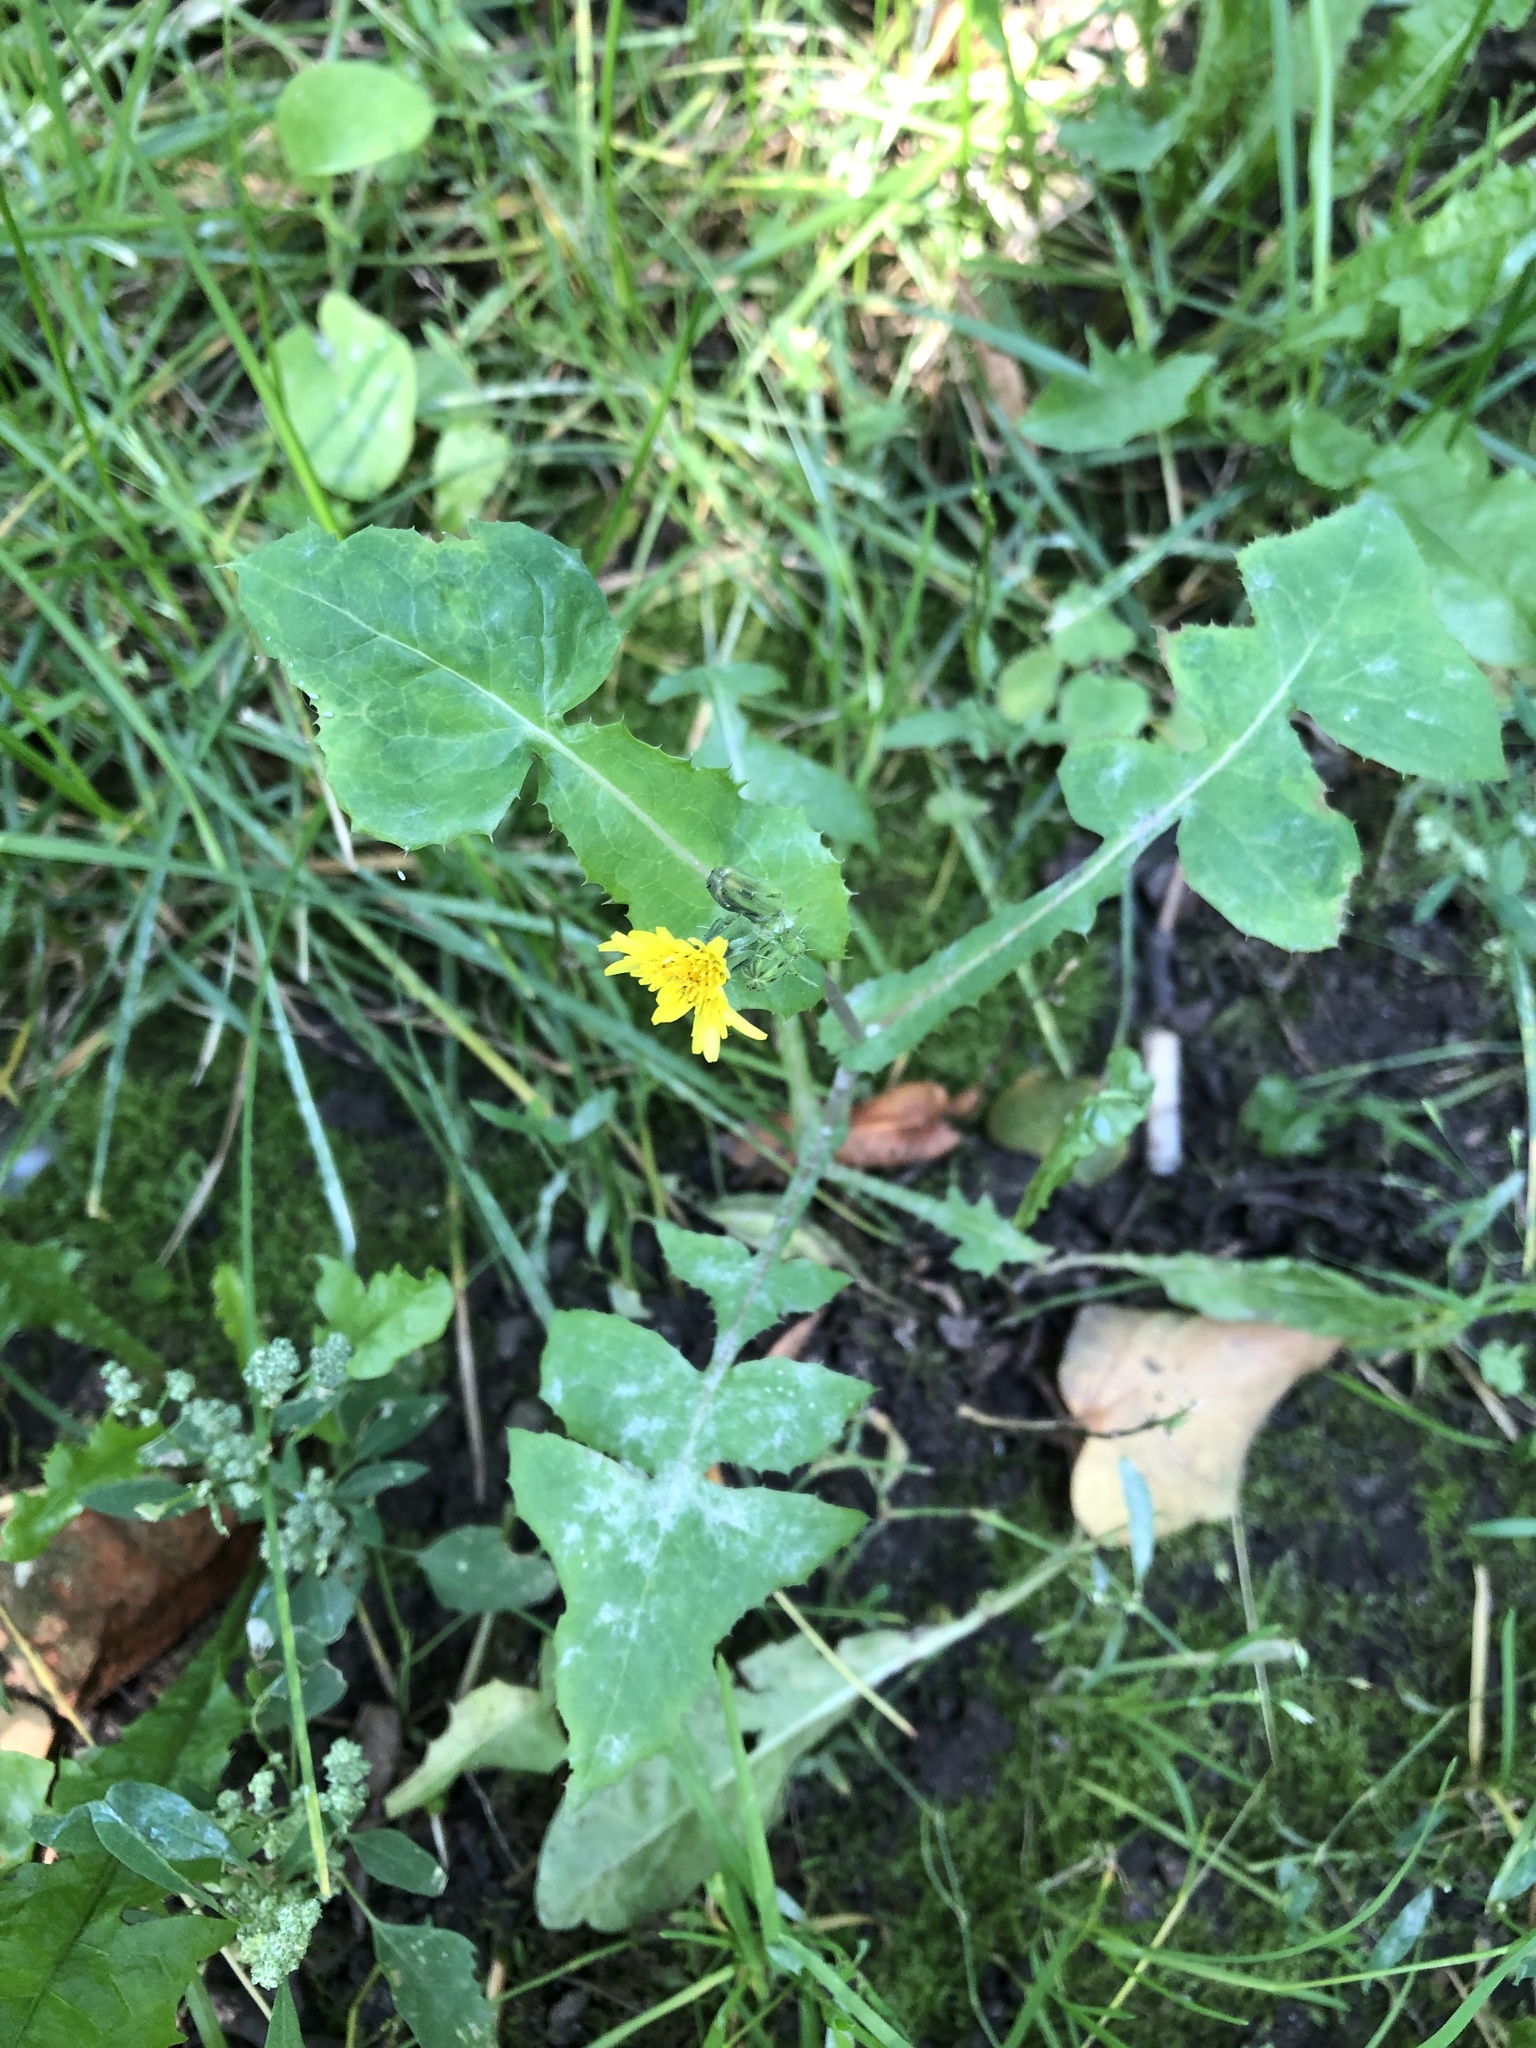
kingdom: Plantae
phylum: Tracheophyta
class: Magnoliopsida
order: Asterales
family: Asteraceae
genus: Sonchus
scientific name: Sonchus oleraceus
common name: Common sowthistle
